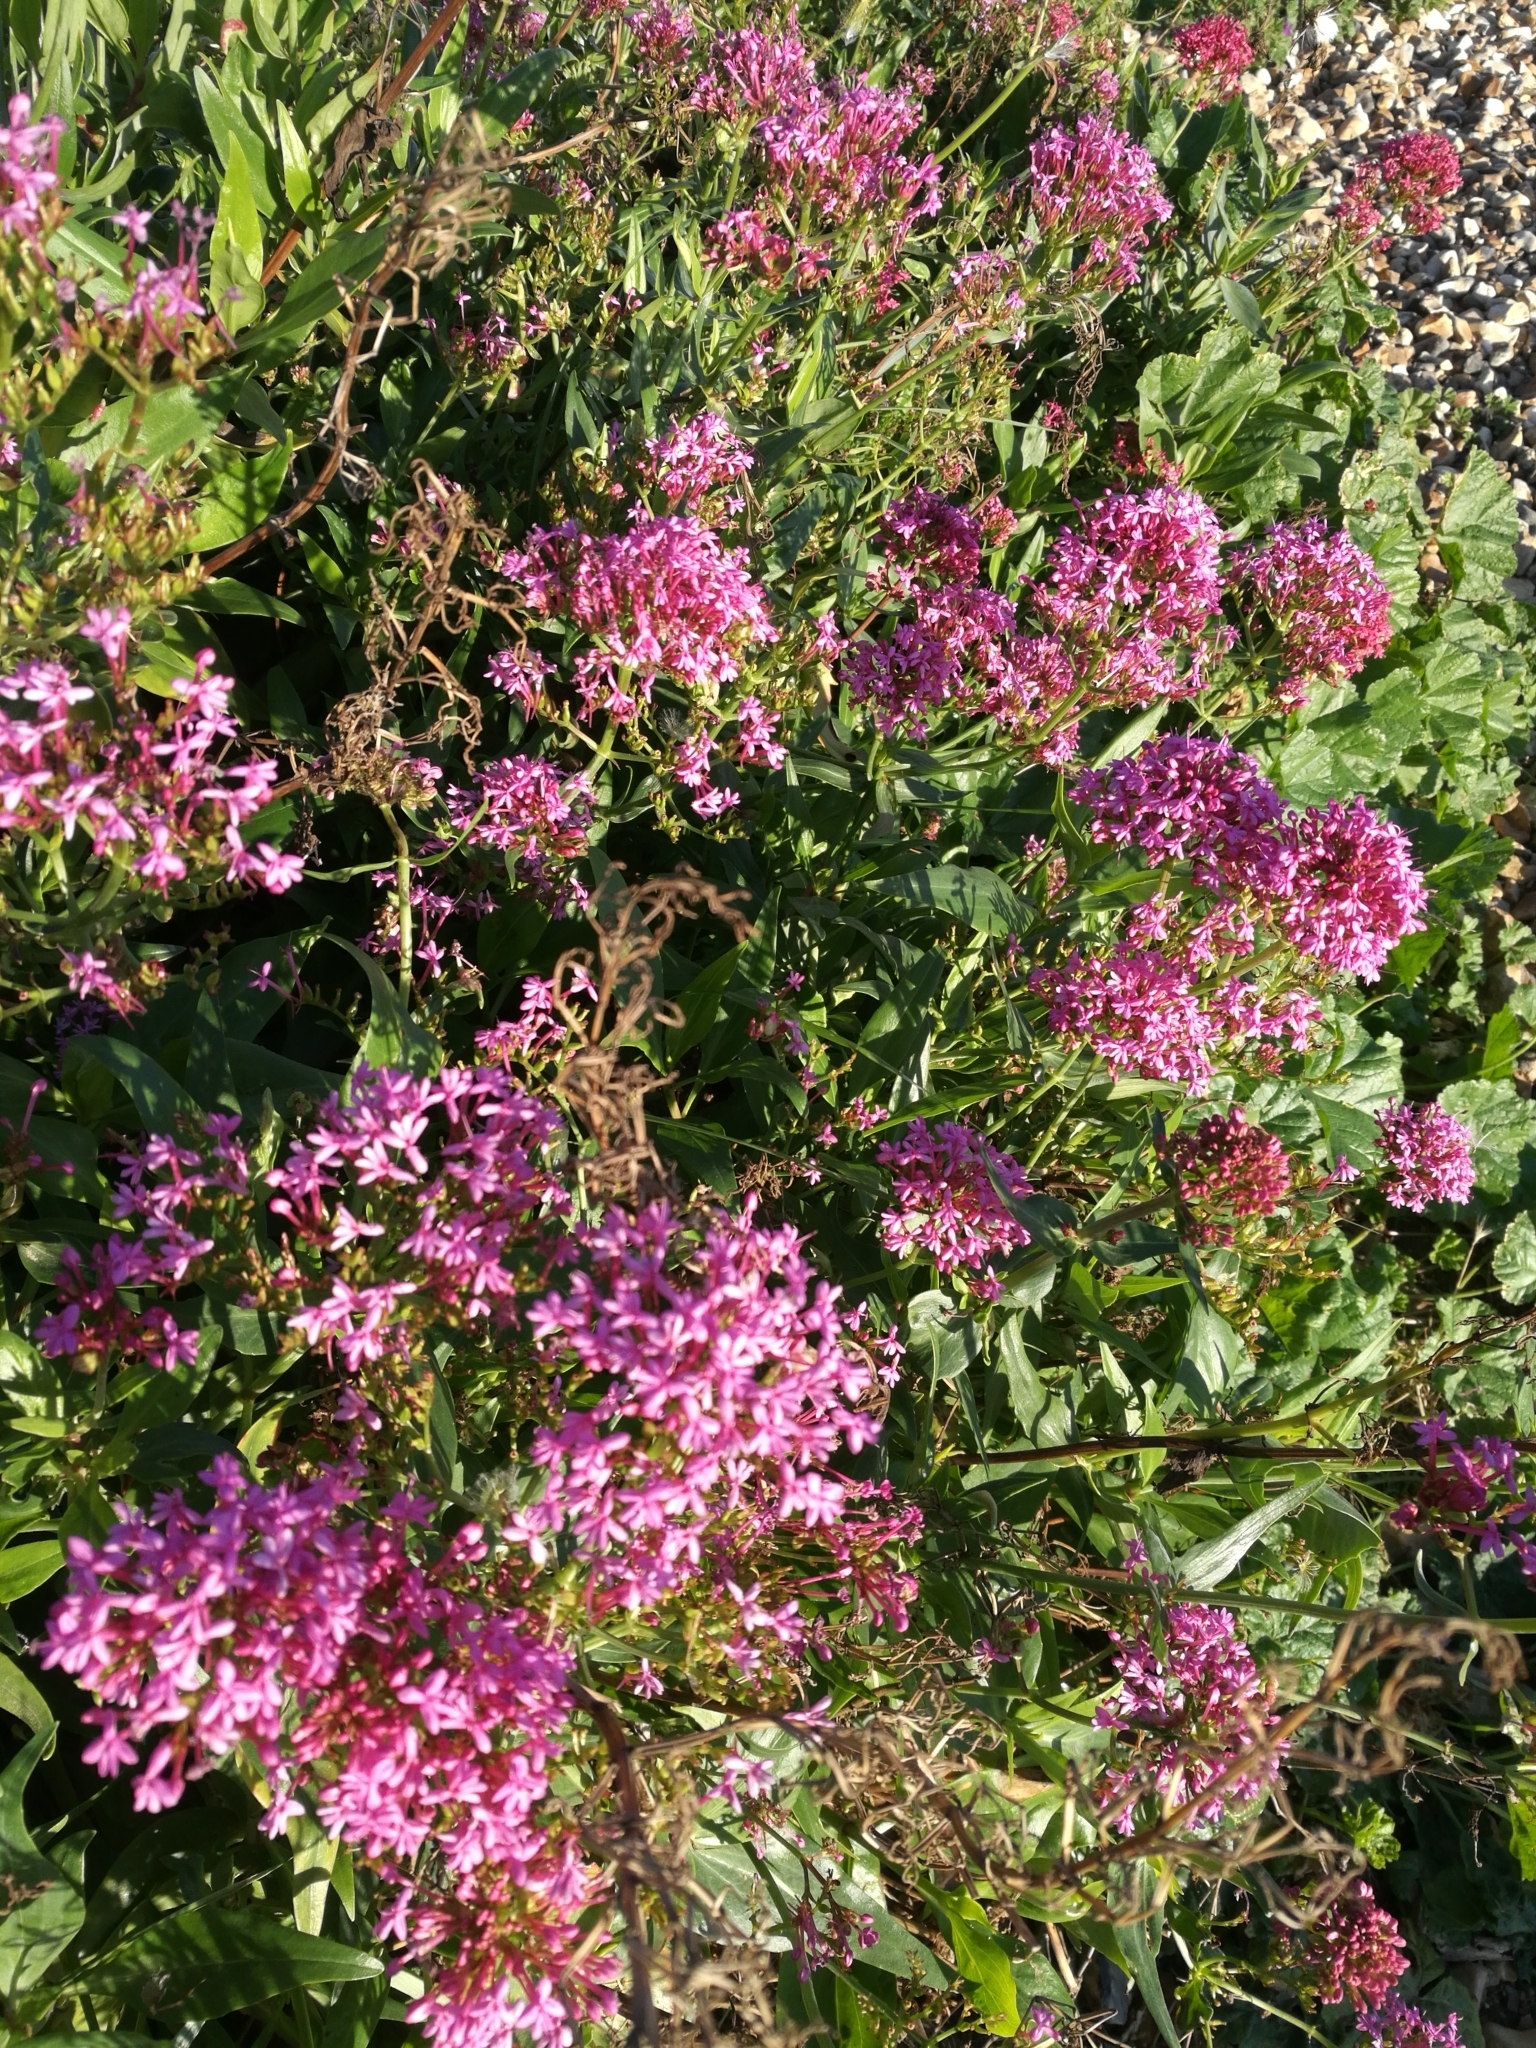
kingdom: Plantae
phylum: Tracheophyta
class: Magnoliopsida
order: Dipsacales
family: Caprifoliaceae
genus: Centranthus
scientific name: Centranthus ruber
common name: Red valerian
